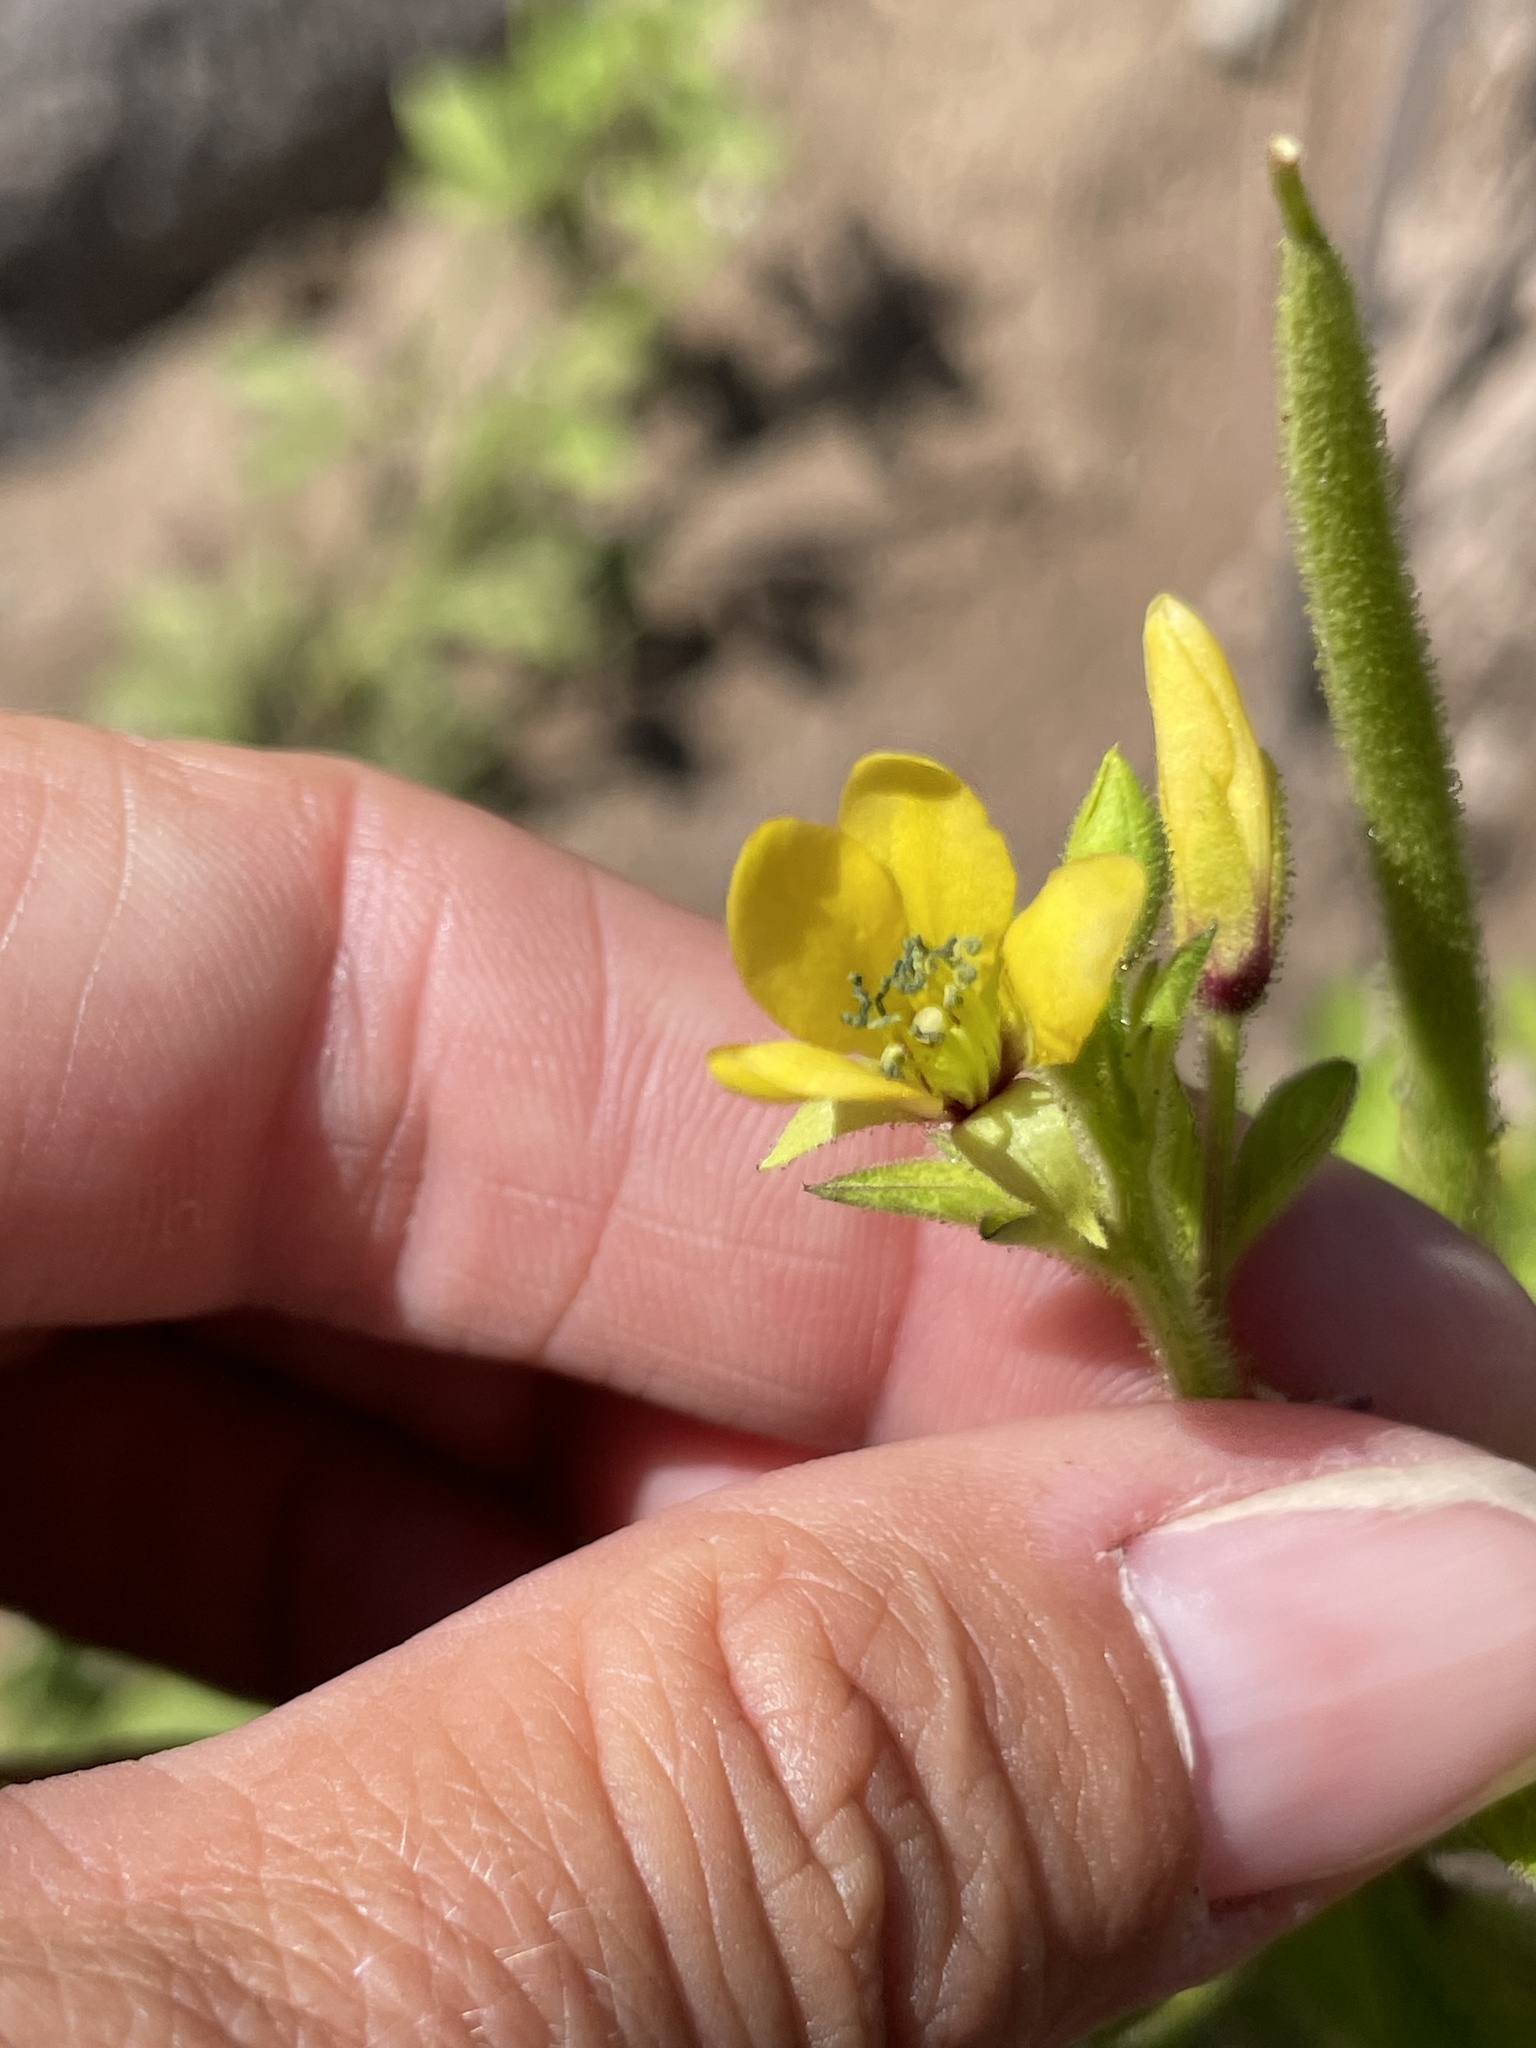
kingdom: Plantae
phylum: Tracheophyta
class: Magnoliopsida
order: Brassicales
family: Cleomaceae
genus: Arivela
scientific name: Arivela viscosa
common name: Asian spiderflower
